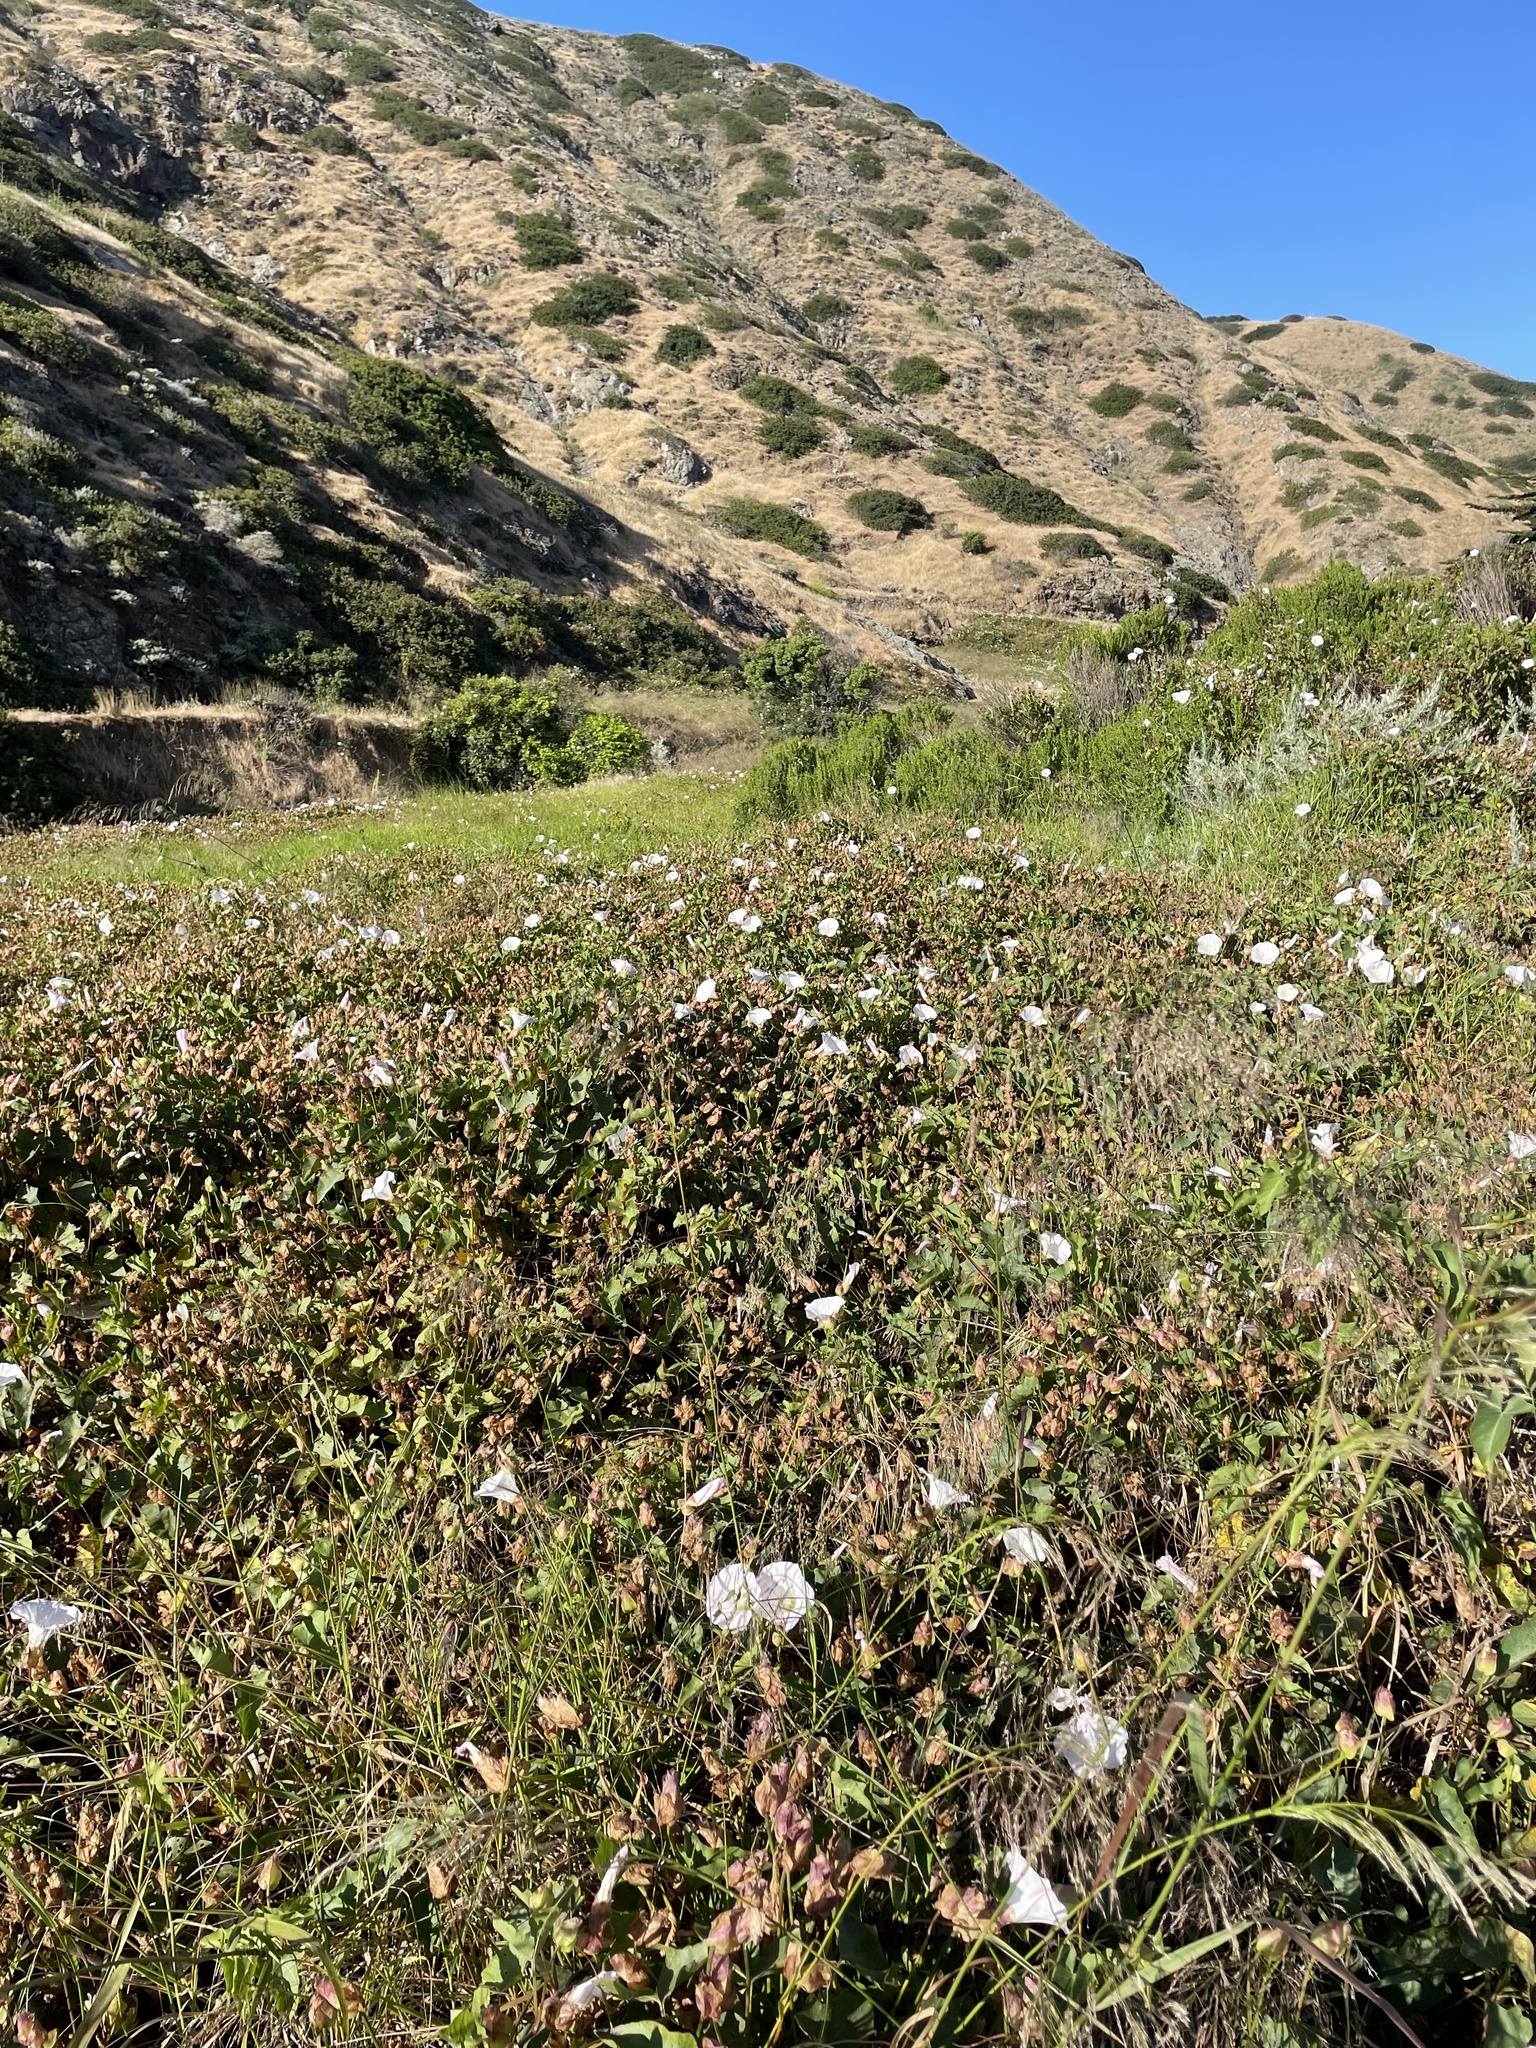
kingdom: Plantae
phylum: Tracheophyta
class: Magnoliopsida
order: Solanales
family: Convolvulaceae
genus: Calystegia
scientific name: Calystegia macrostegia
